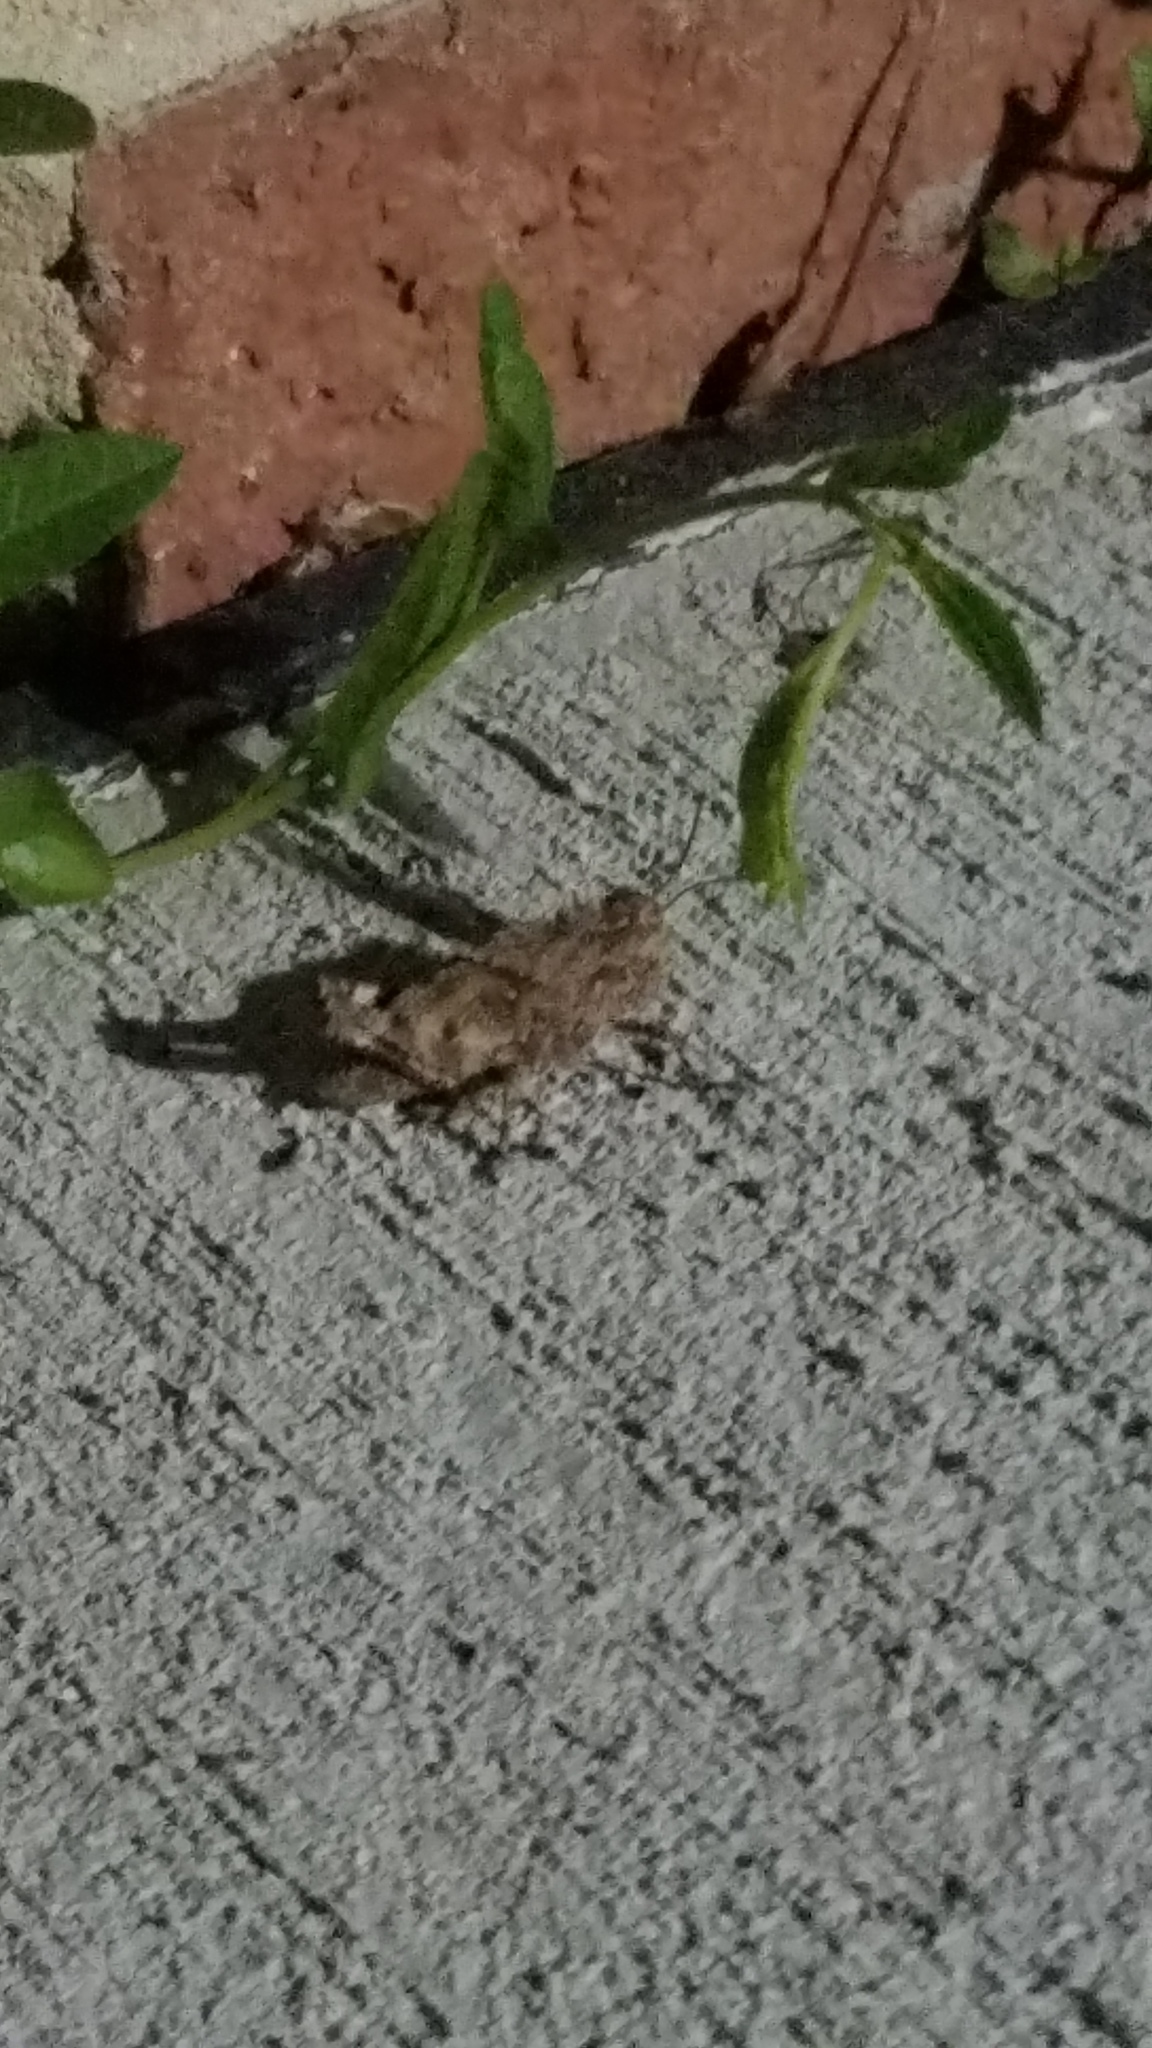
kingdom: Animalia
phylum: Arthropoda
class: Insecta
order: Orthoptera
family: Acrididae
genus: Dissosteira
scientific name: Dissosteira carolina
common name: Carolina grasshopper
